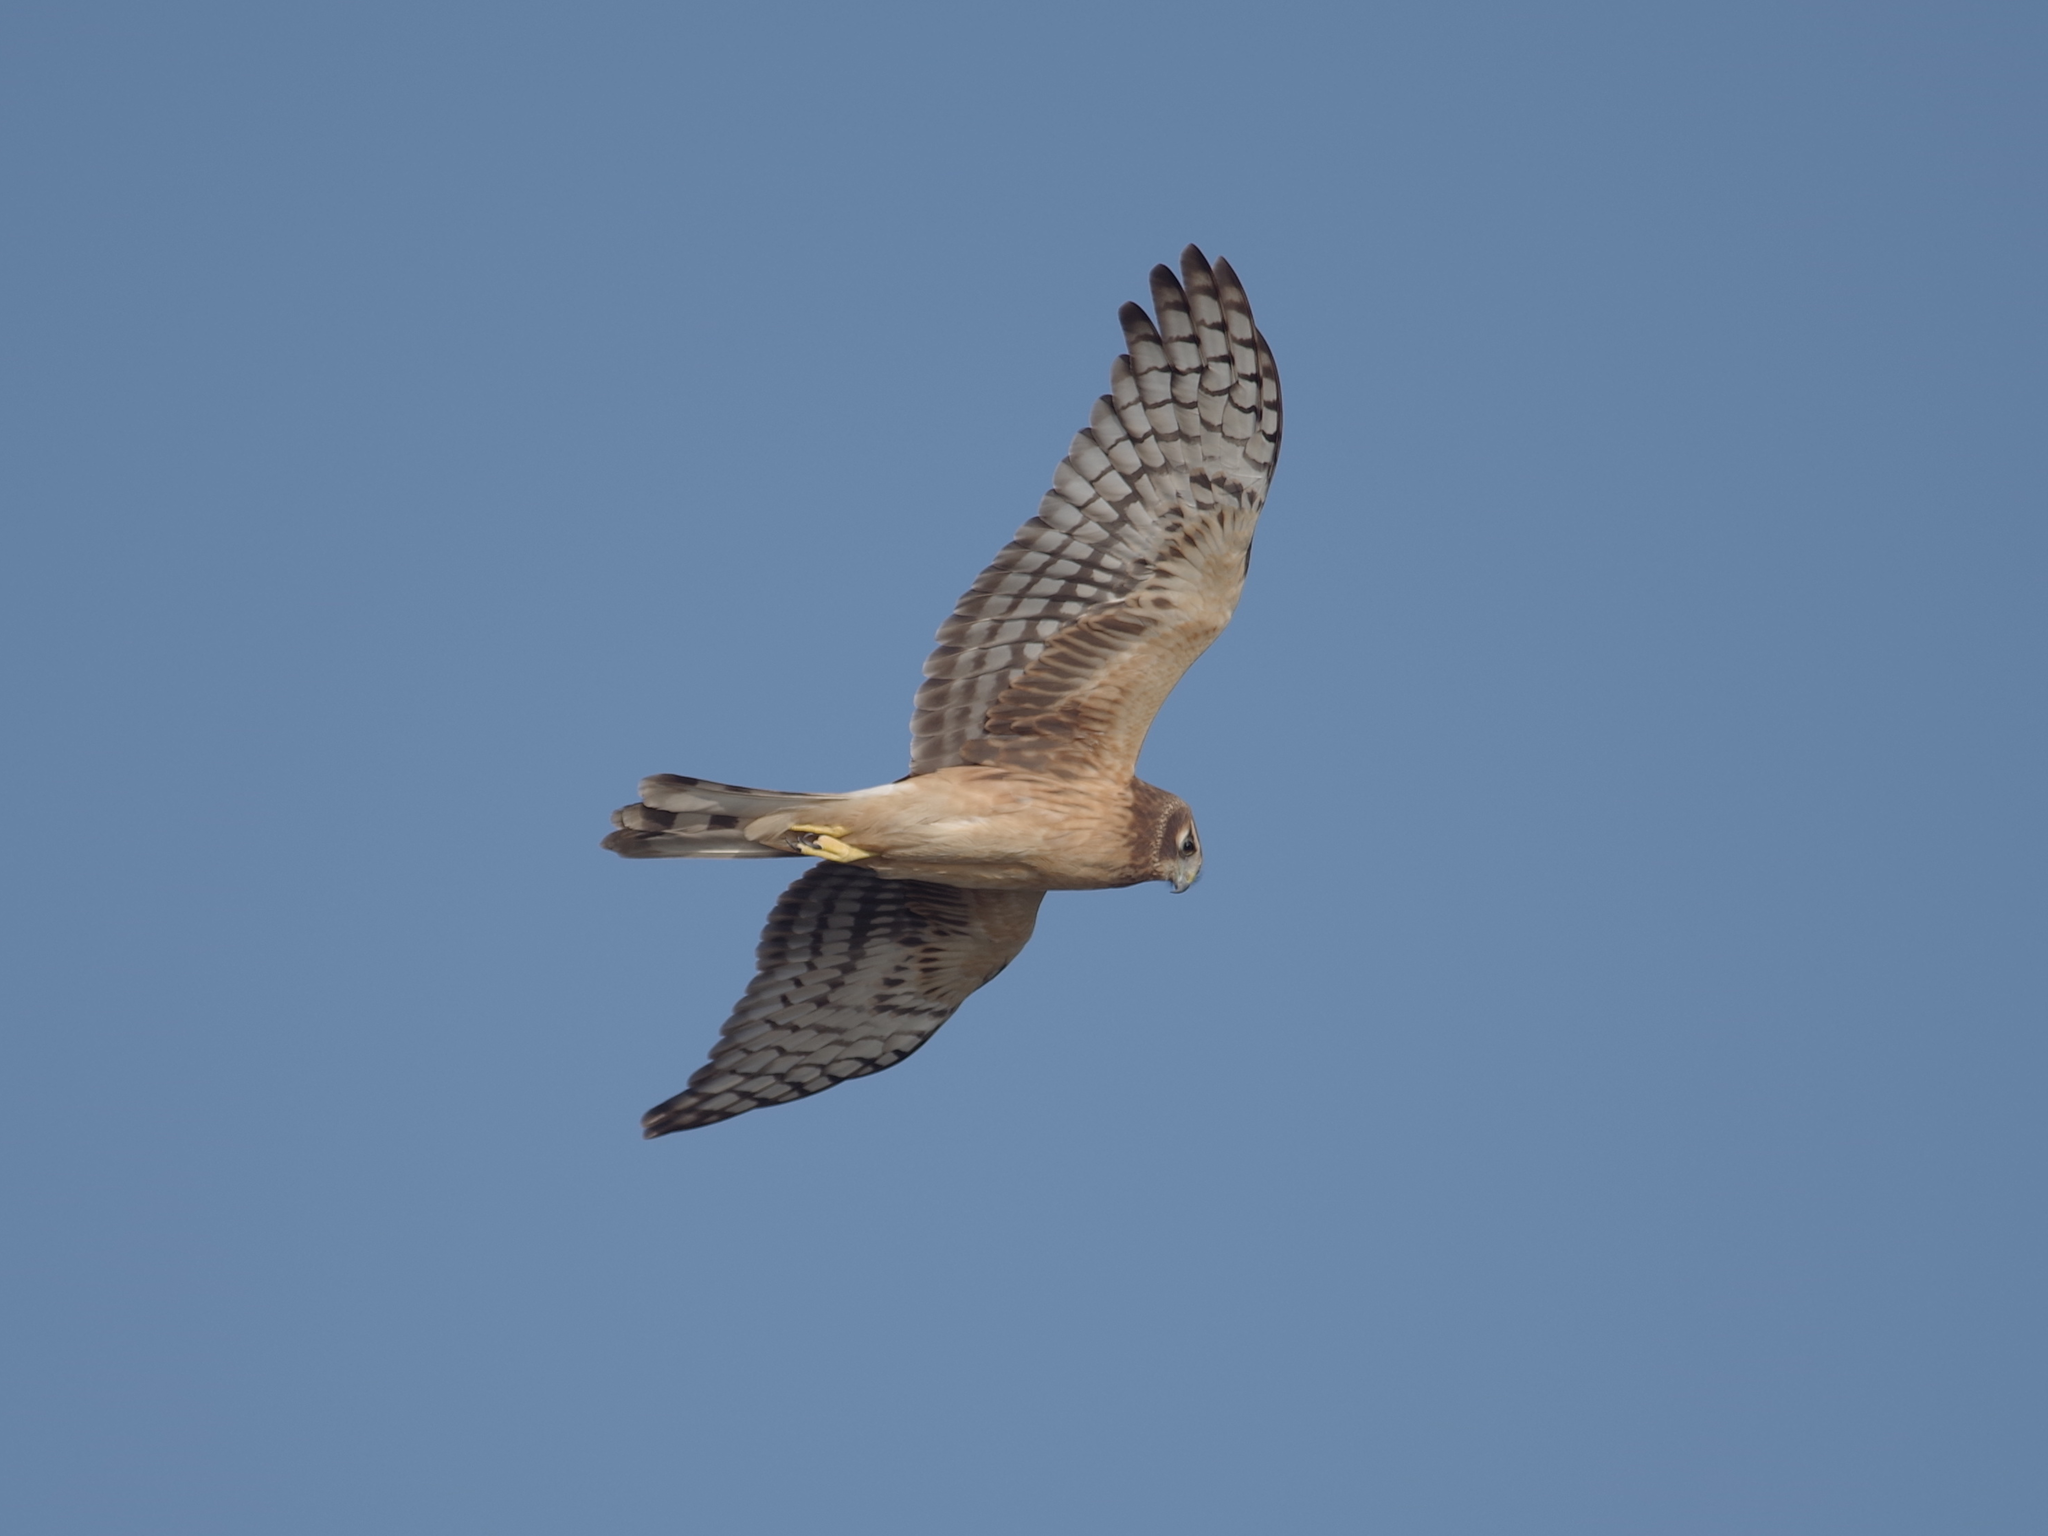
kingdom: Animalia
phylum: Chordata
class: Aves
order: Accipitriformes
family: Accipitridae
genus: Circus
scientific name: Circus cyaneus
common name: Hen harrier
